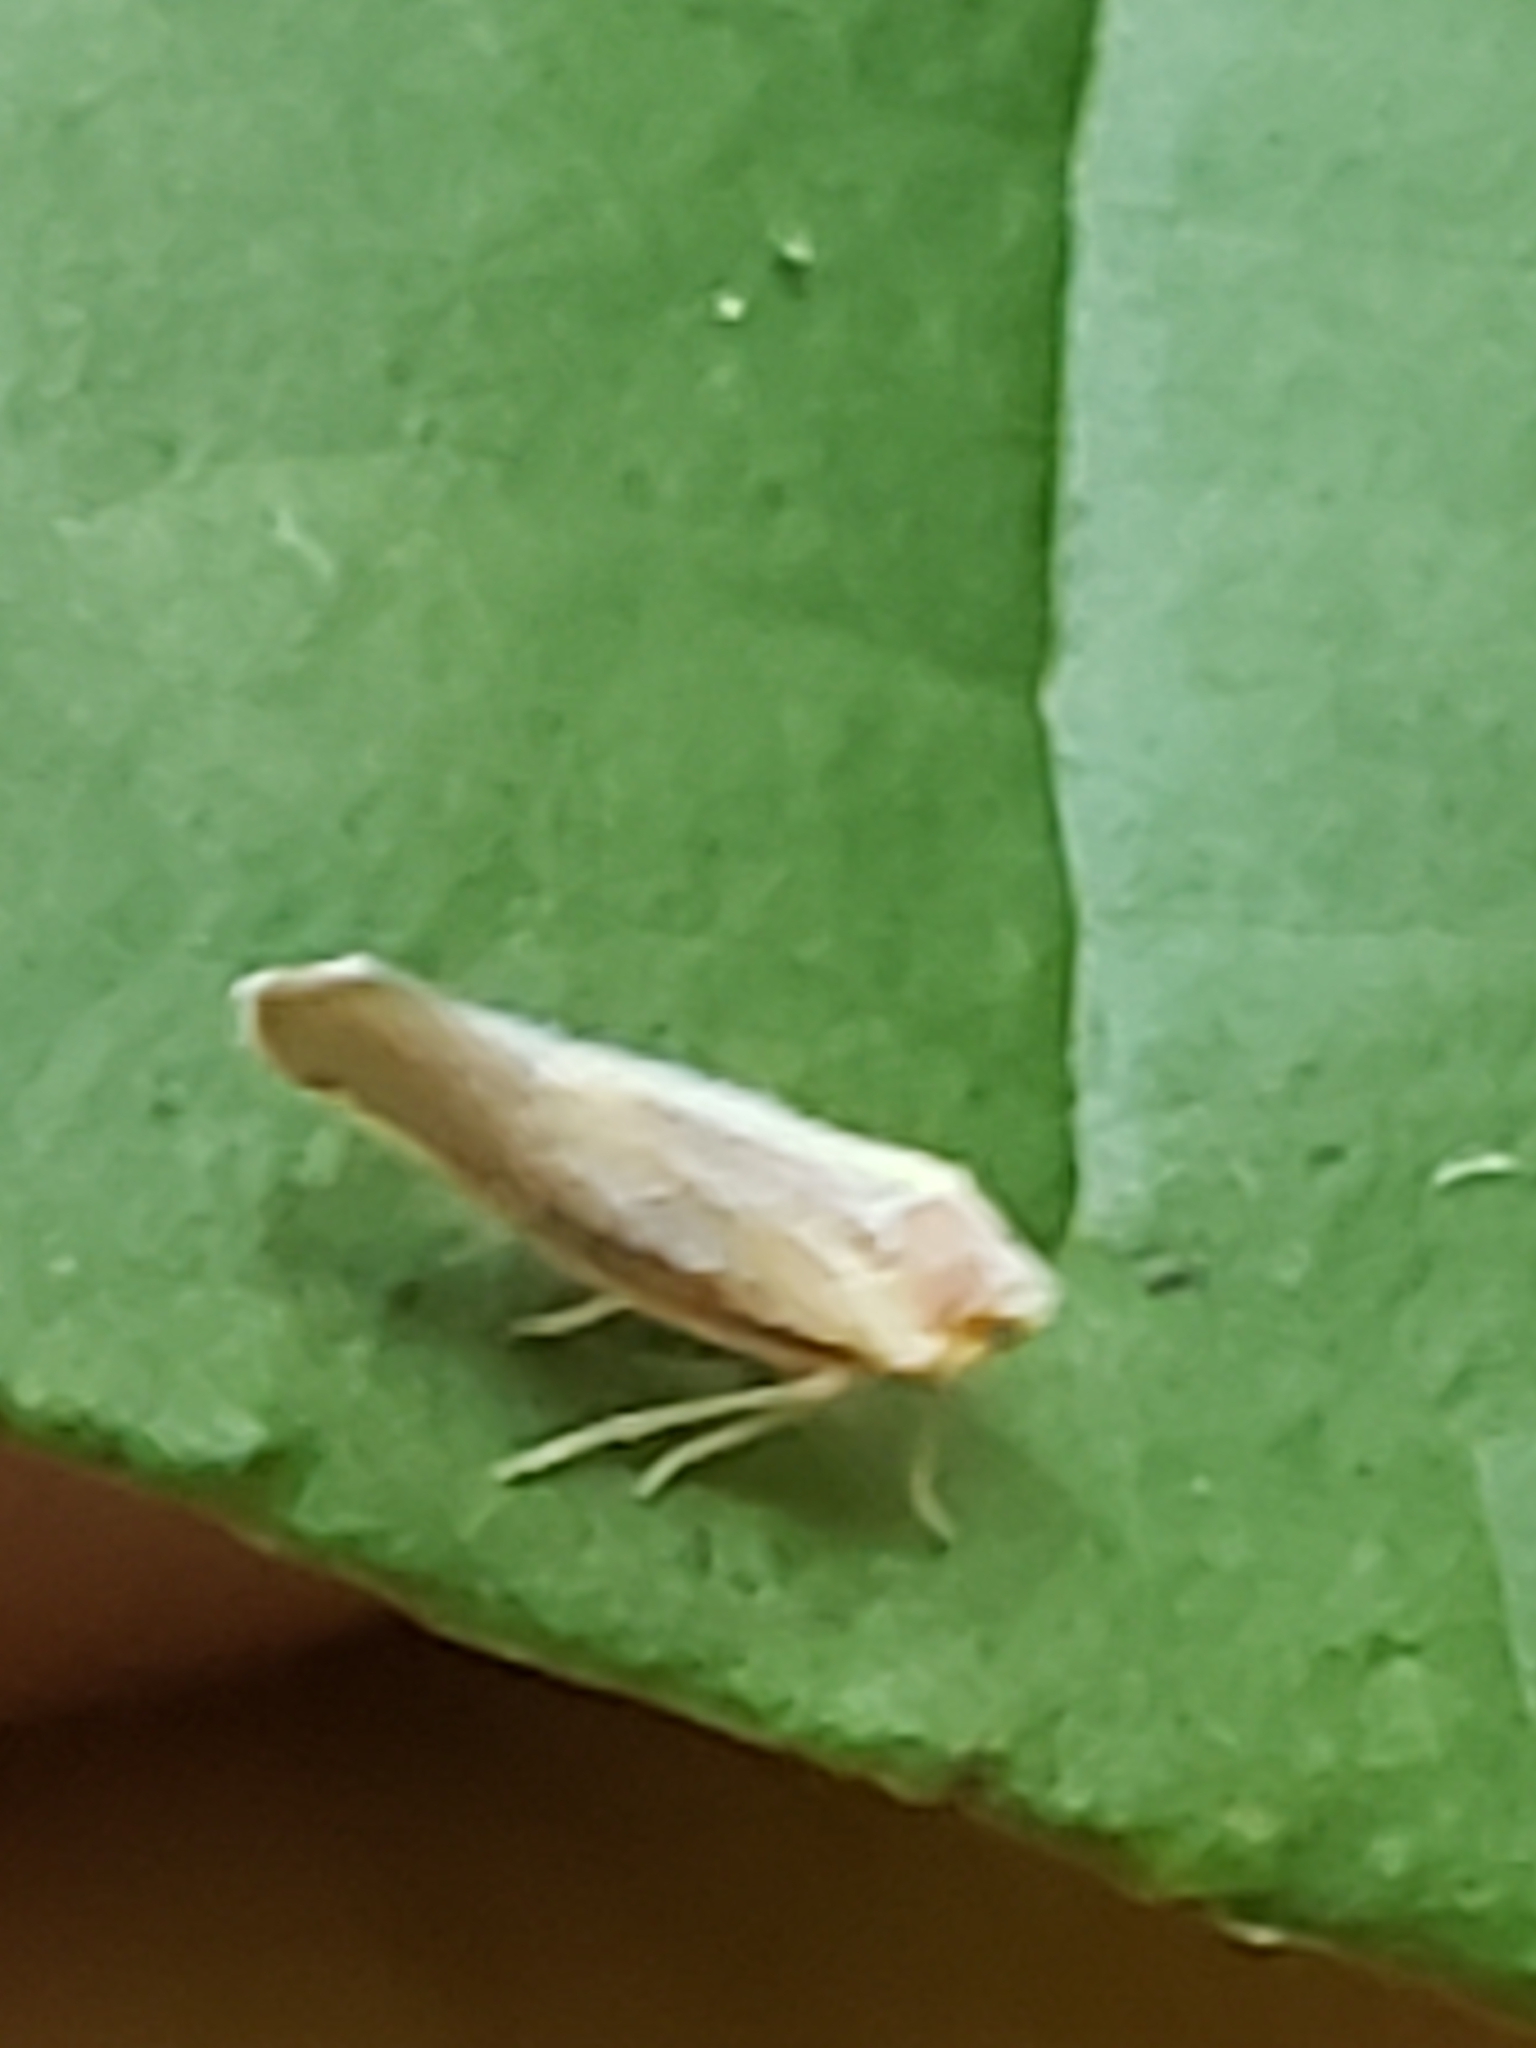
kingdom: Animalia
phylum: Arthropoda
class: Insecta
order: Hemiptera
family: Derbidae
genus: Omolicna
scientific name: Omolicna uhleri
